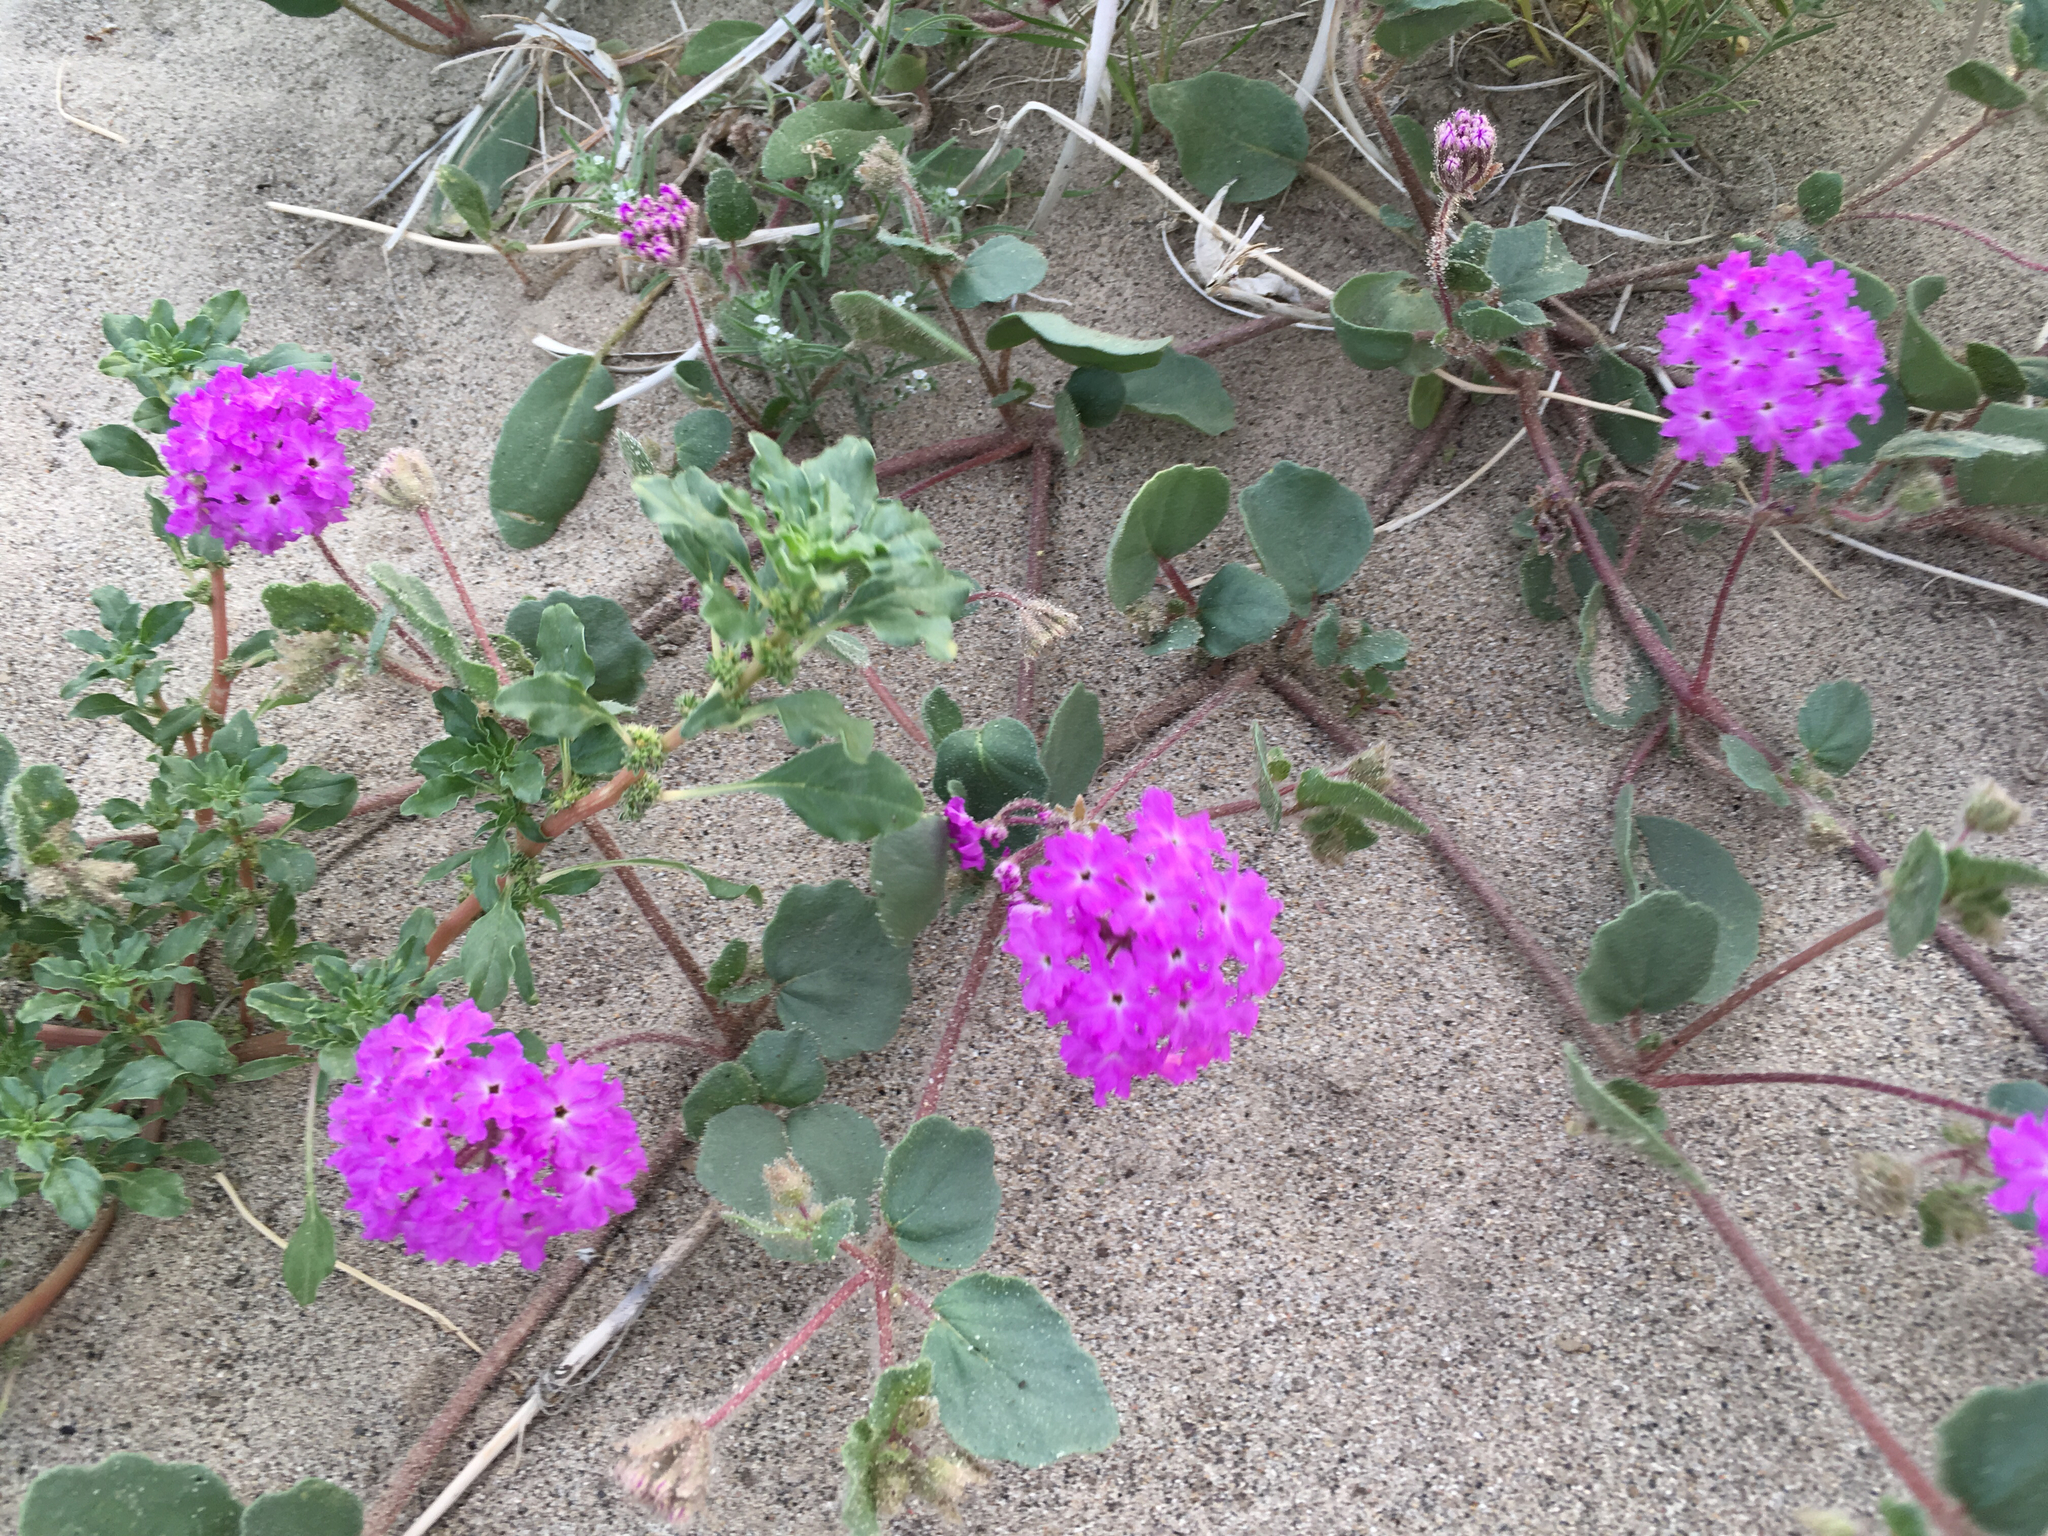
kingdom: Plantae
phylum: Tracheophyta
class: Magnoliopsida
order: Caryophyllales
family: Nyctaginaceae
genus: Abronia
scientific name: Abronia villosa
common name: Desert sand-verbena
